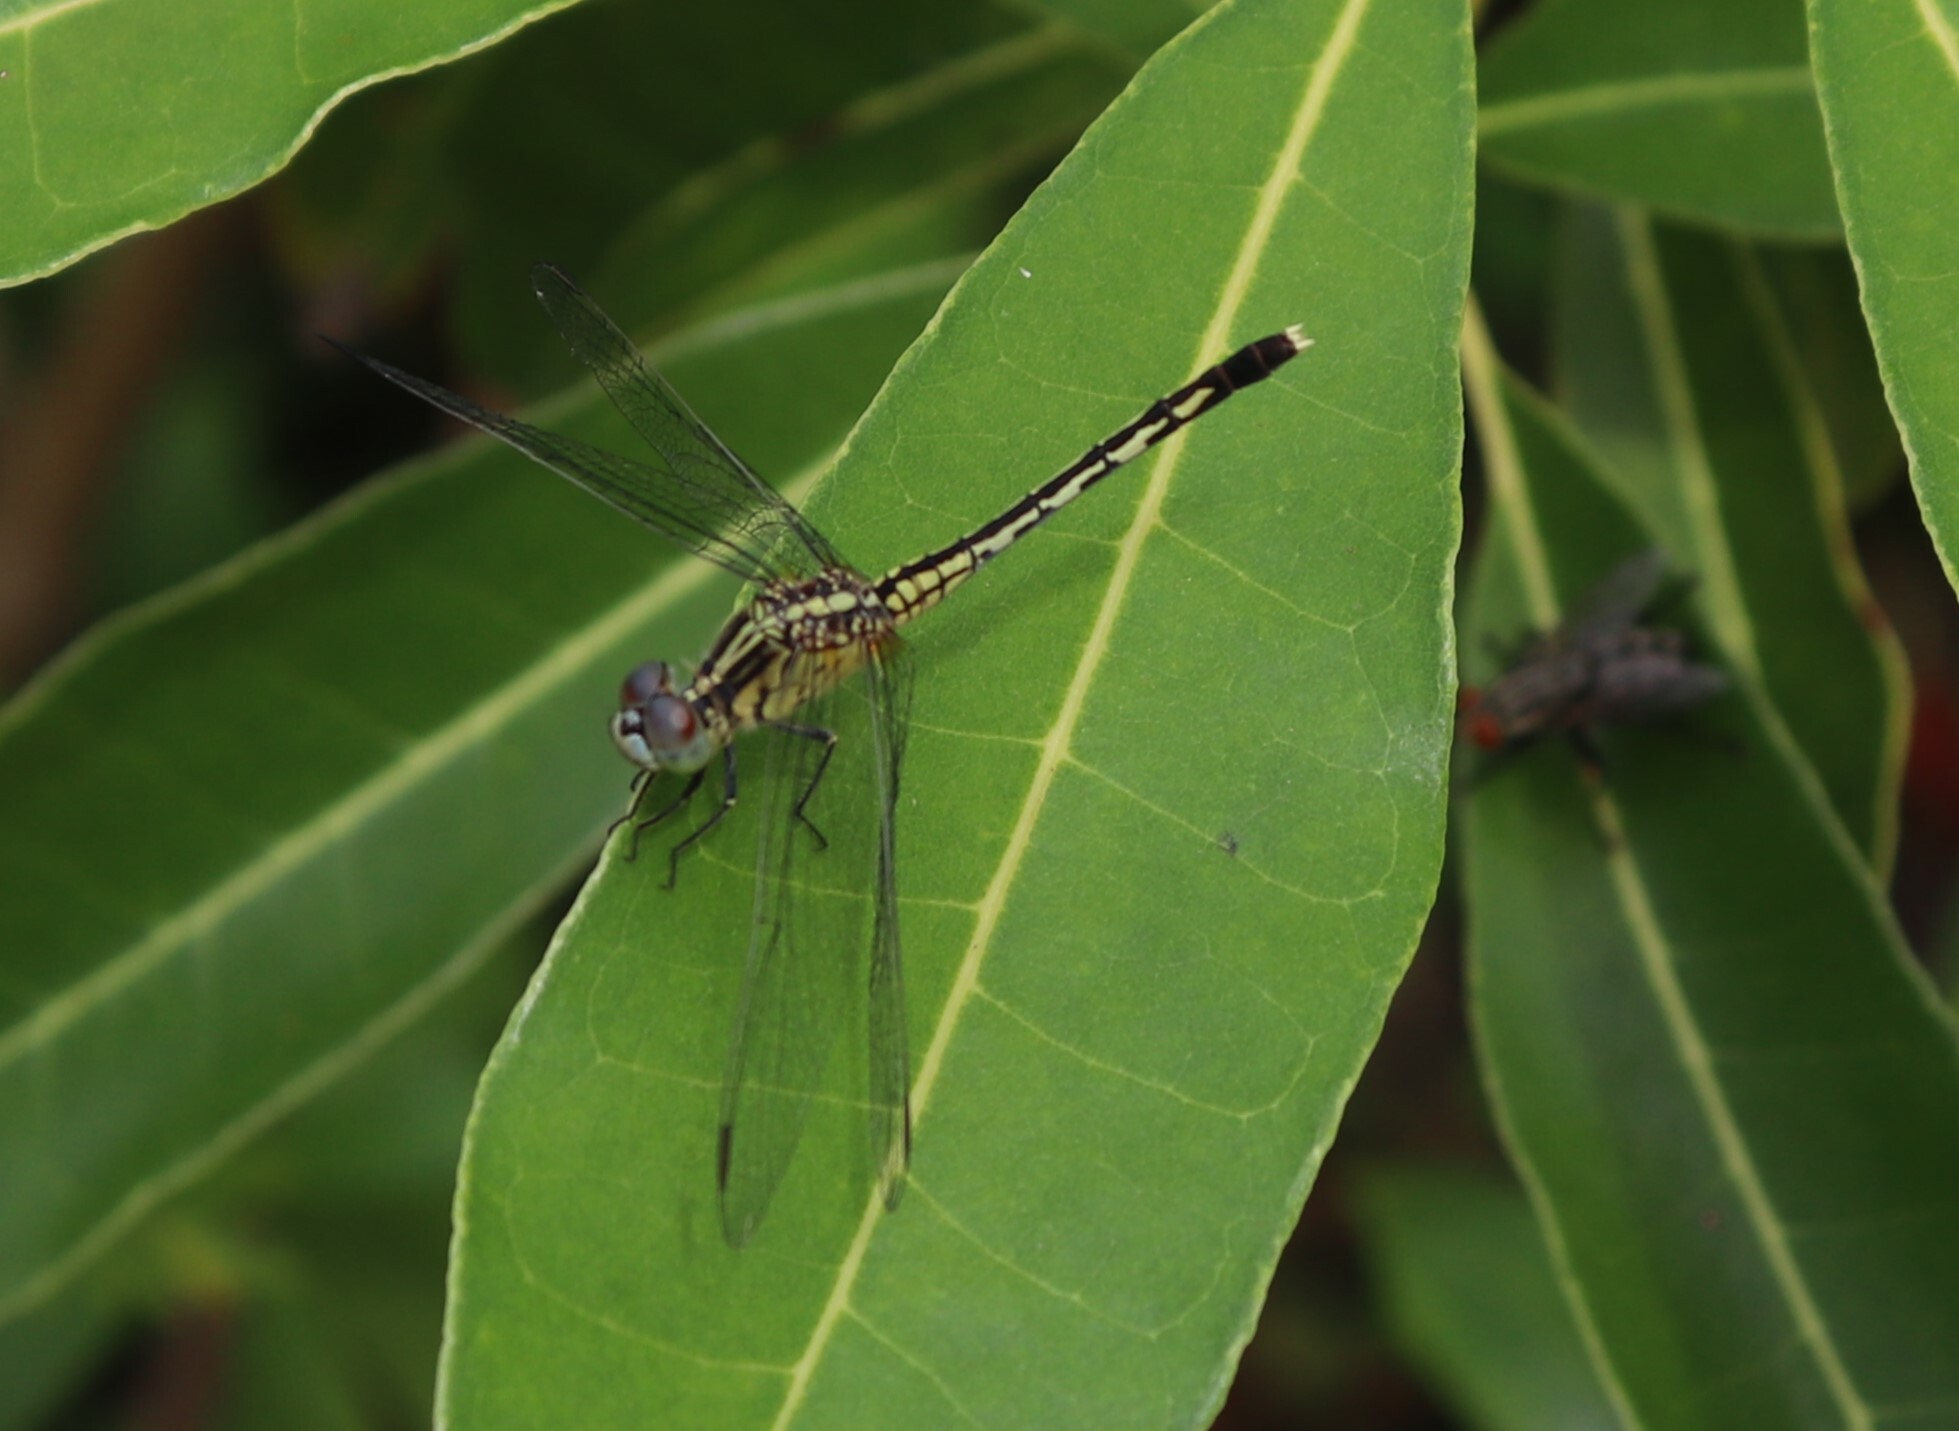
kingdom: Animalia
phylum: Arthropoda
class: Insecta
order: Odonata
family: Libellulidae
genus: Diplacodes
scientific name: Diplacodes trivialis
